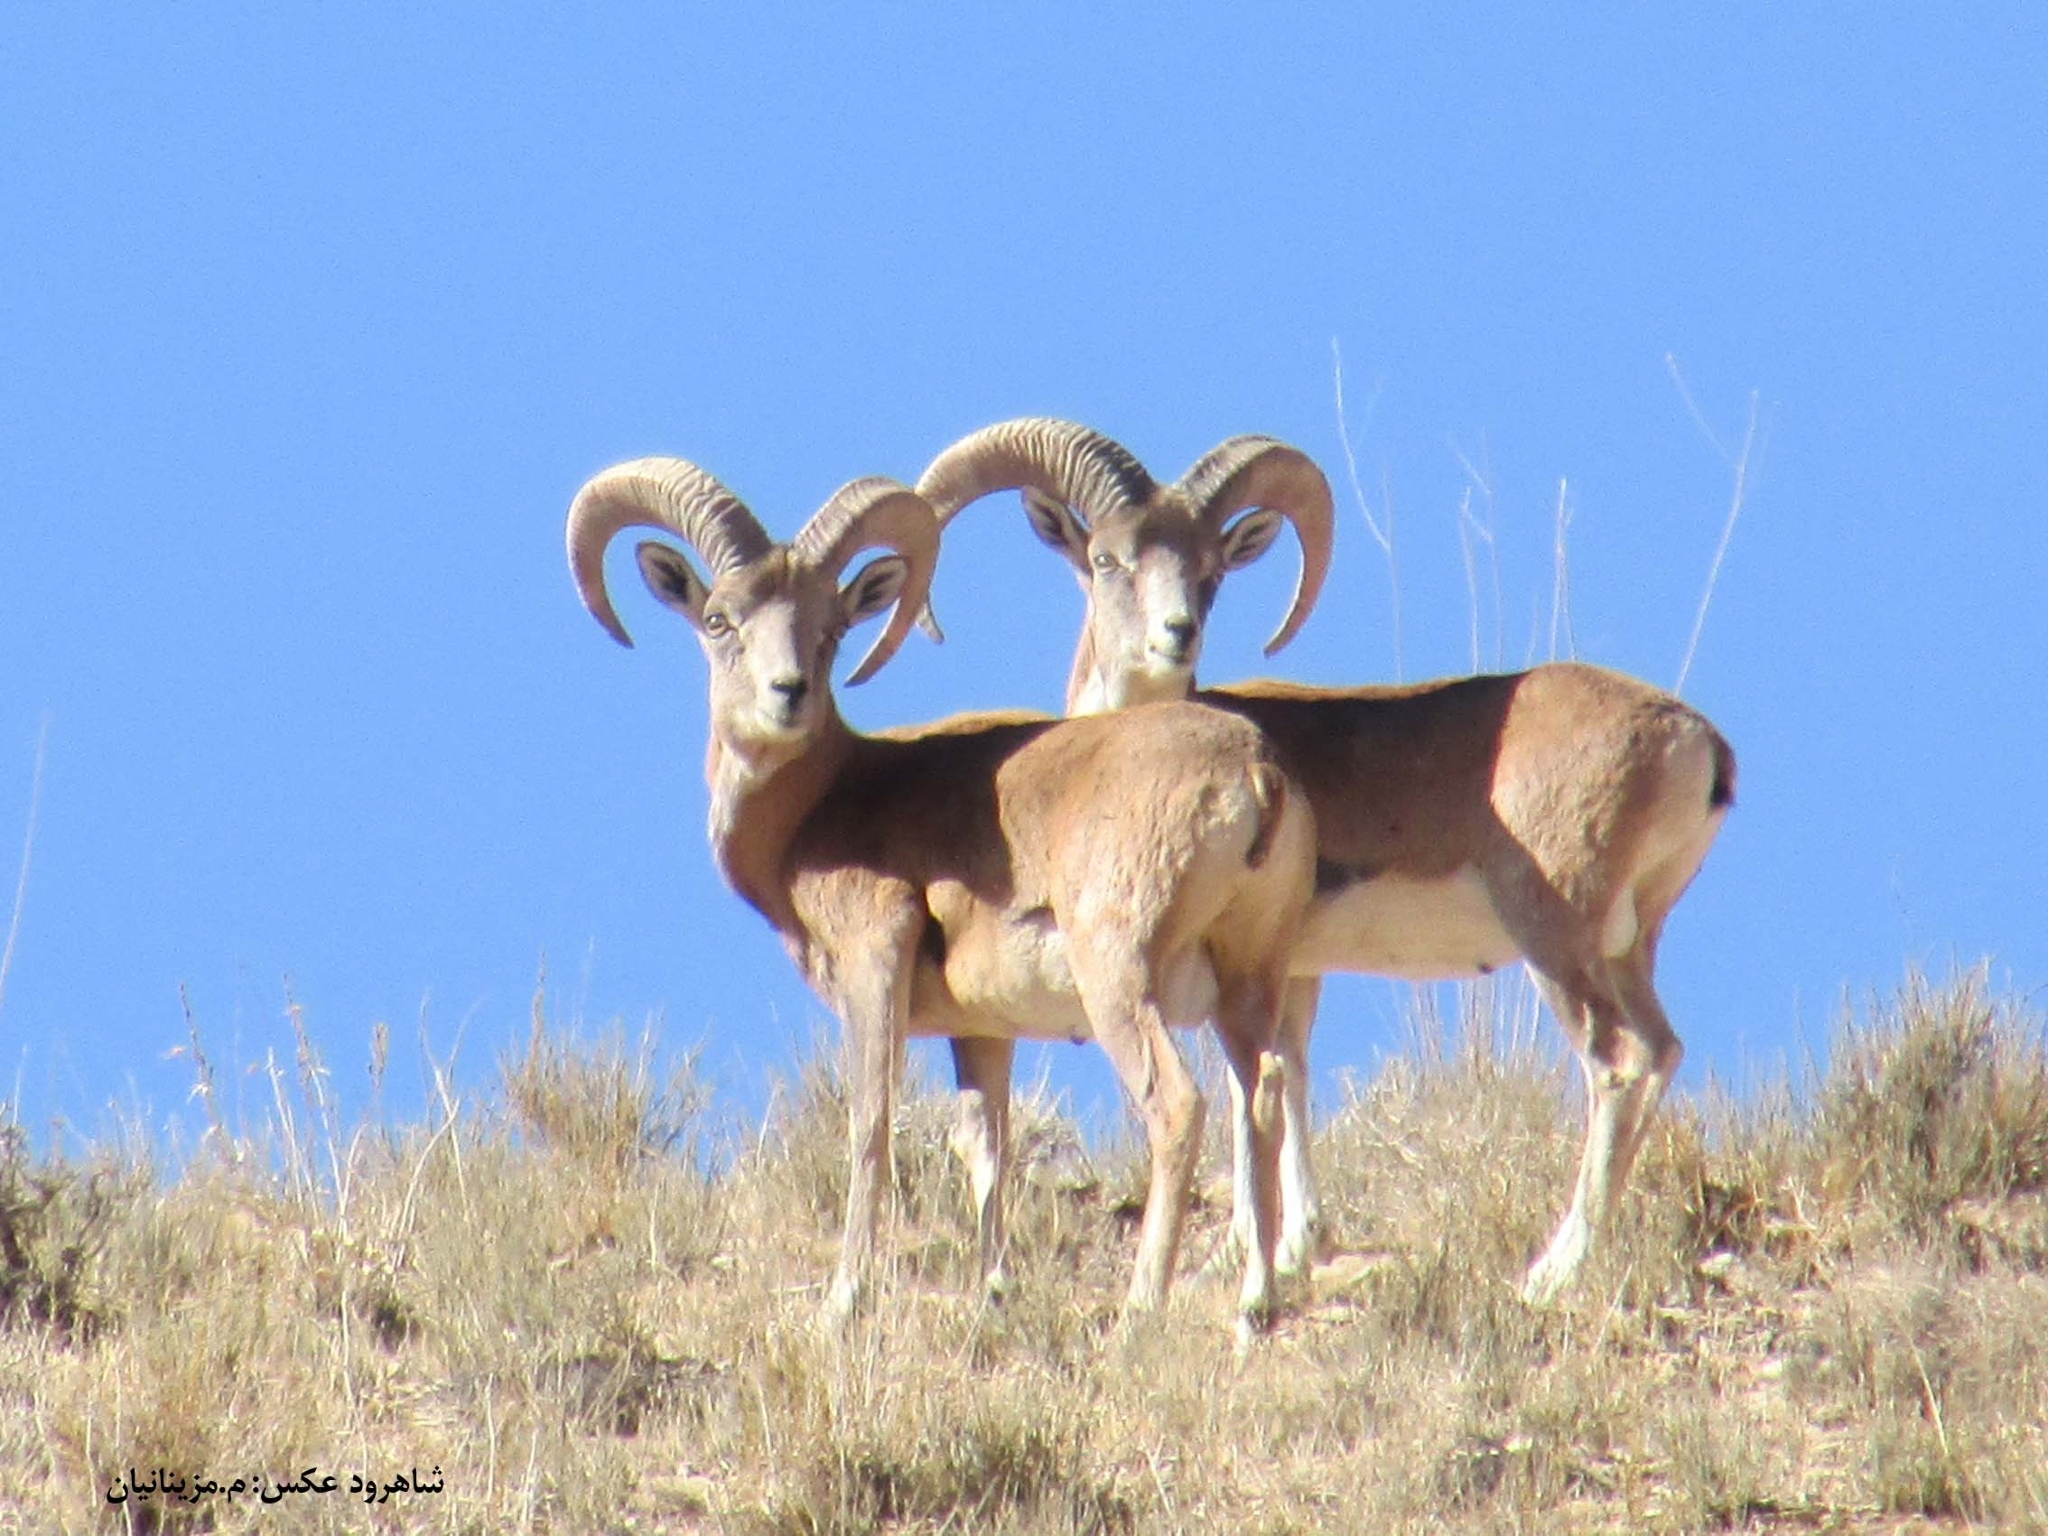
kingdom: Animalia
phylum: Chordata
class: Mammalia
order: Artiodactyla
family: Bovidae
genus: Ovis
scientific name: Ovis aries
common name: Domestic sheep
